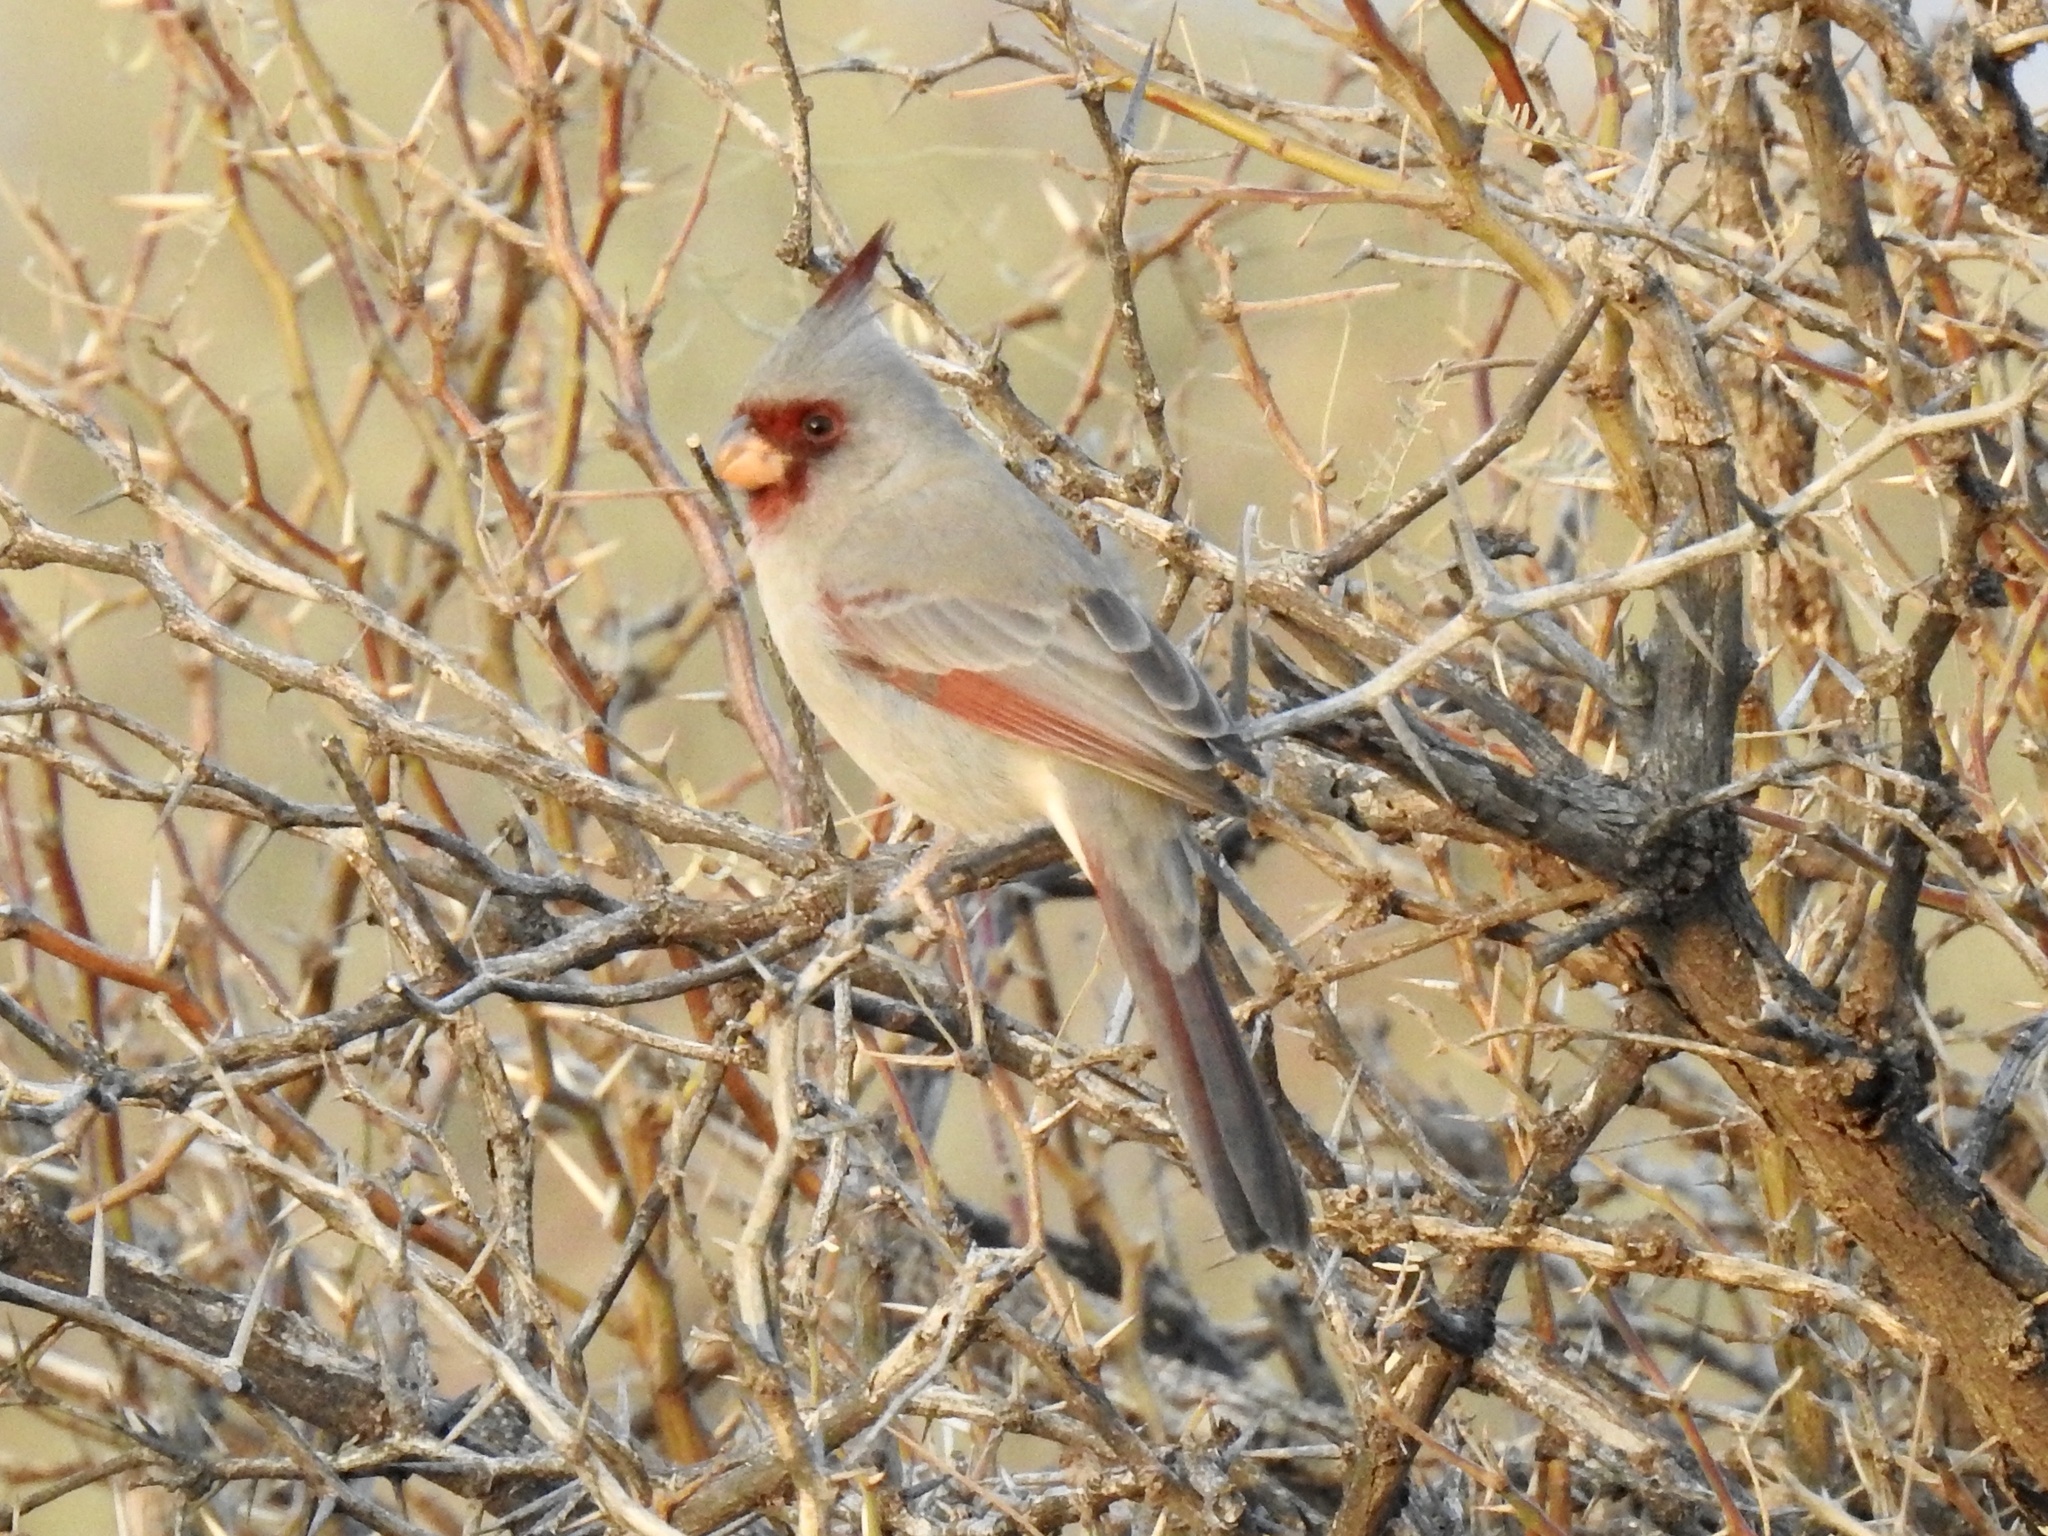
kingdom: Animalia
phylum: Chordata
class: Aves
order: Passeriformes
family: Cardinalidae
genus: Cardinalis
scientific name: Cardinalis sinuatus
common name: Pyrrhuloxia
